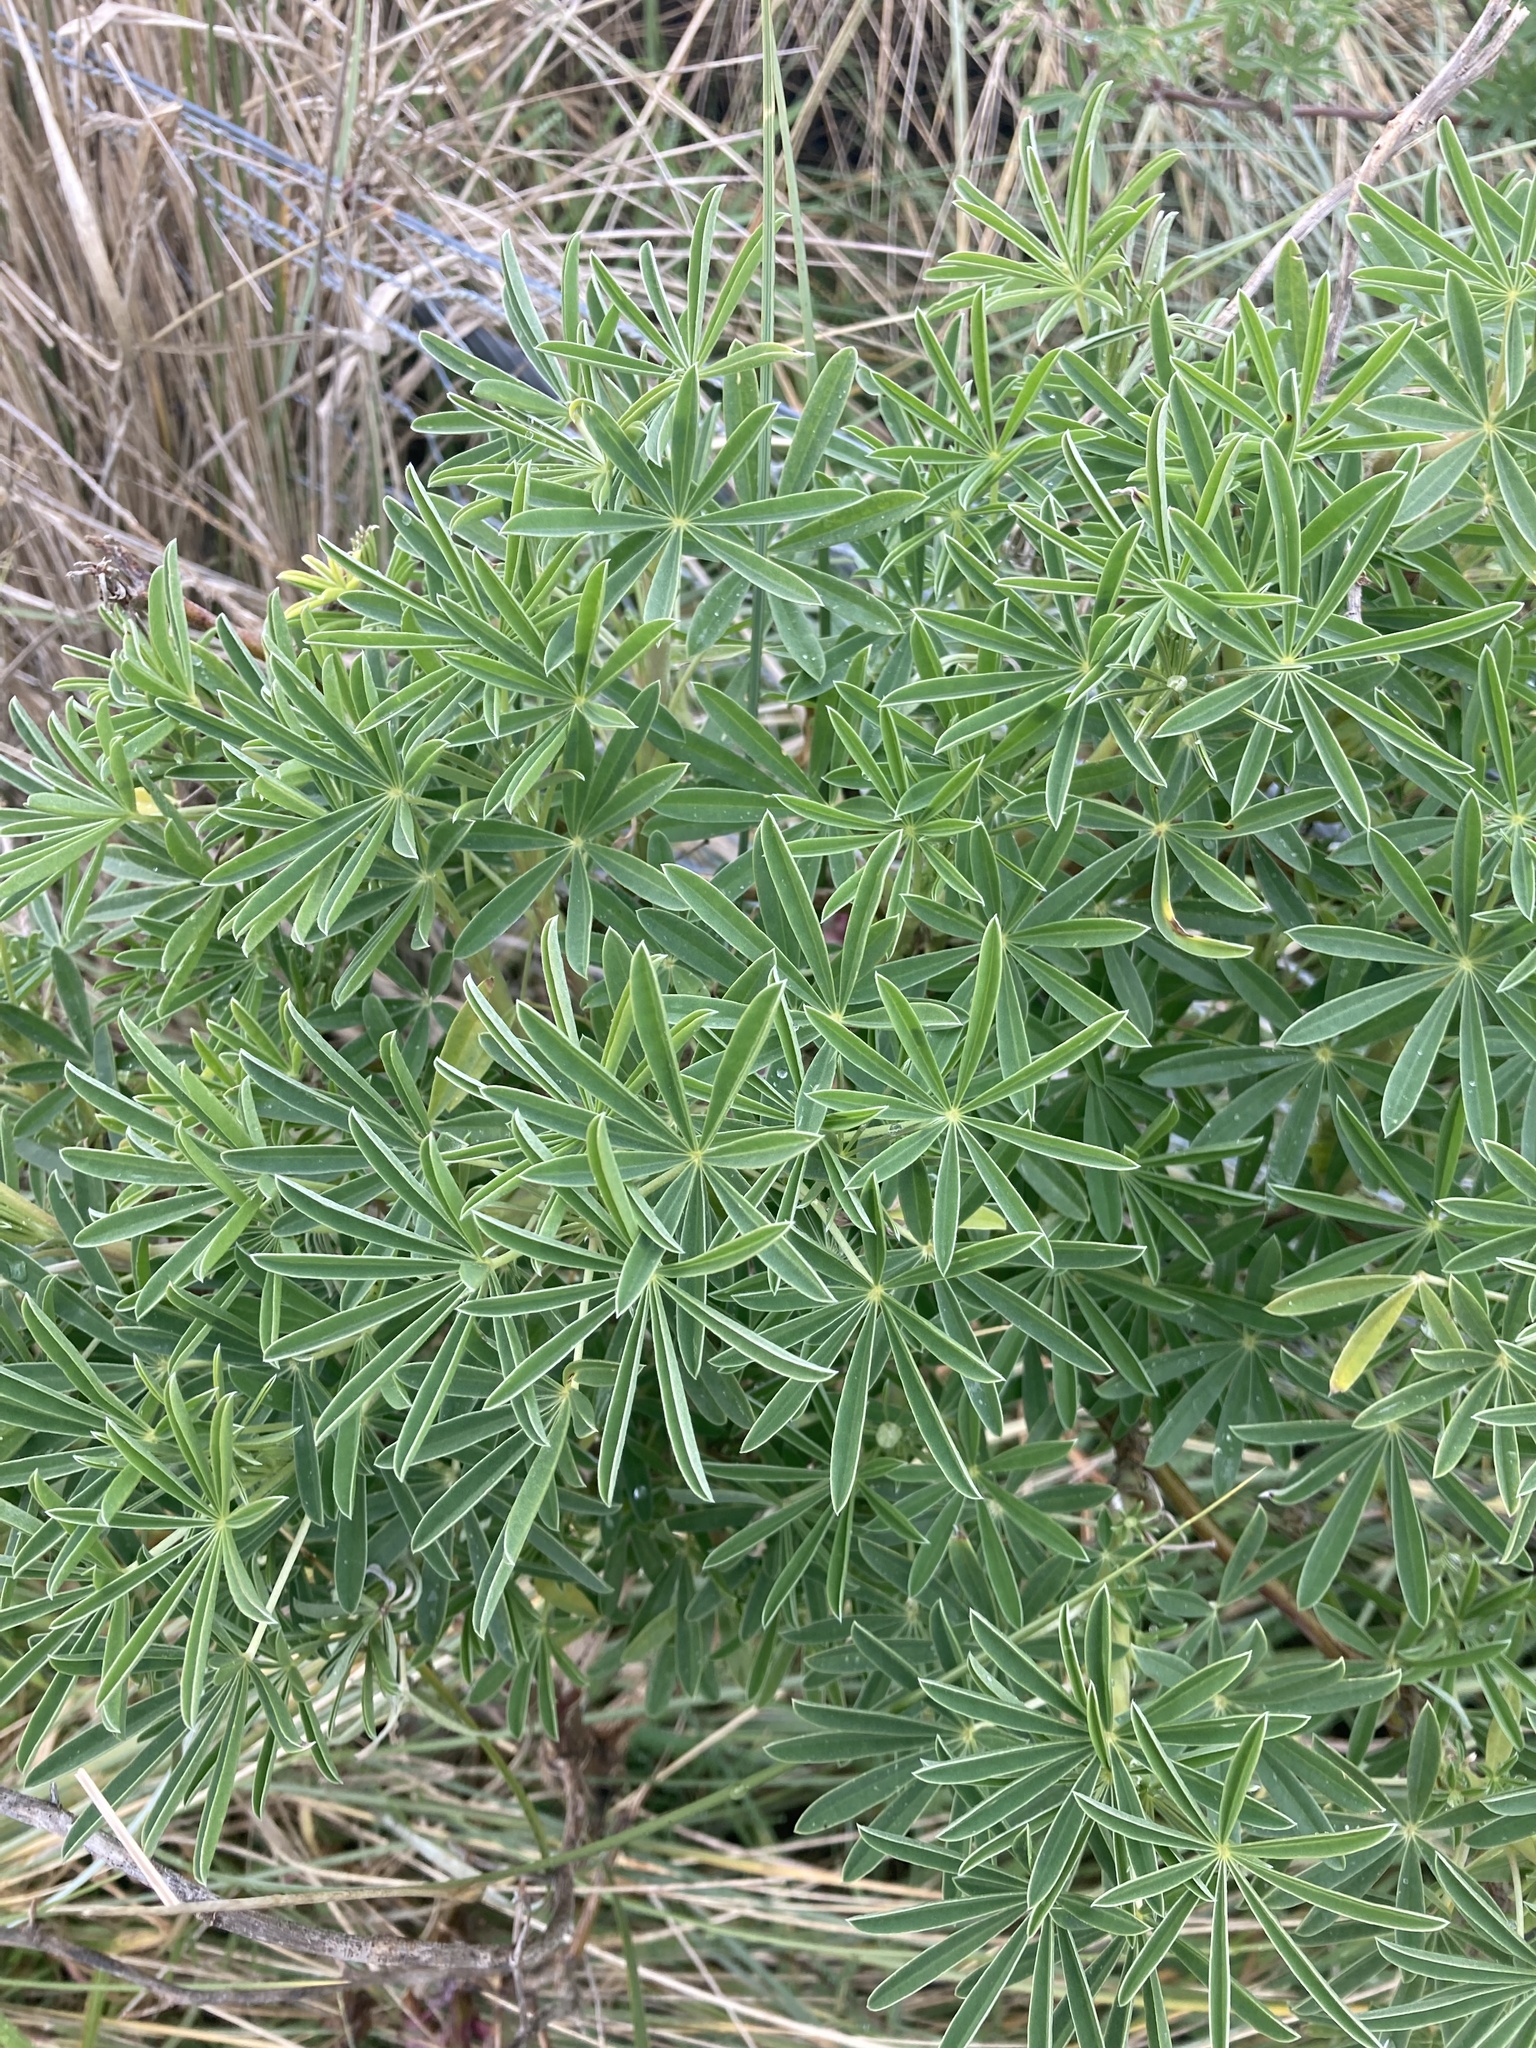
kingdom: Plantae
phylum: Tracheophyta
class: Magnoliopsida
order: Fabales
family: Fabaceae
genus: Lupinus
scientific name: Lupinus arboreus
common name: Yellow bush lupine
